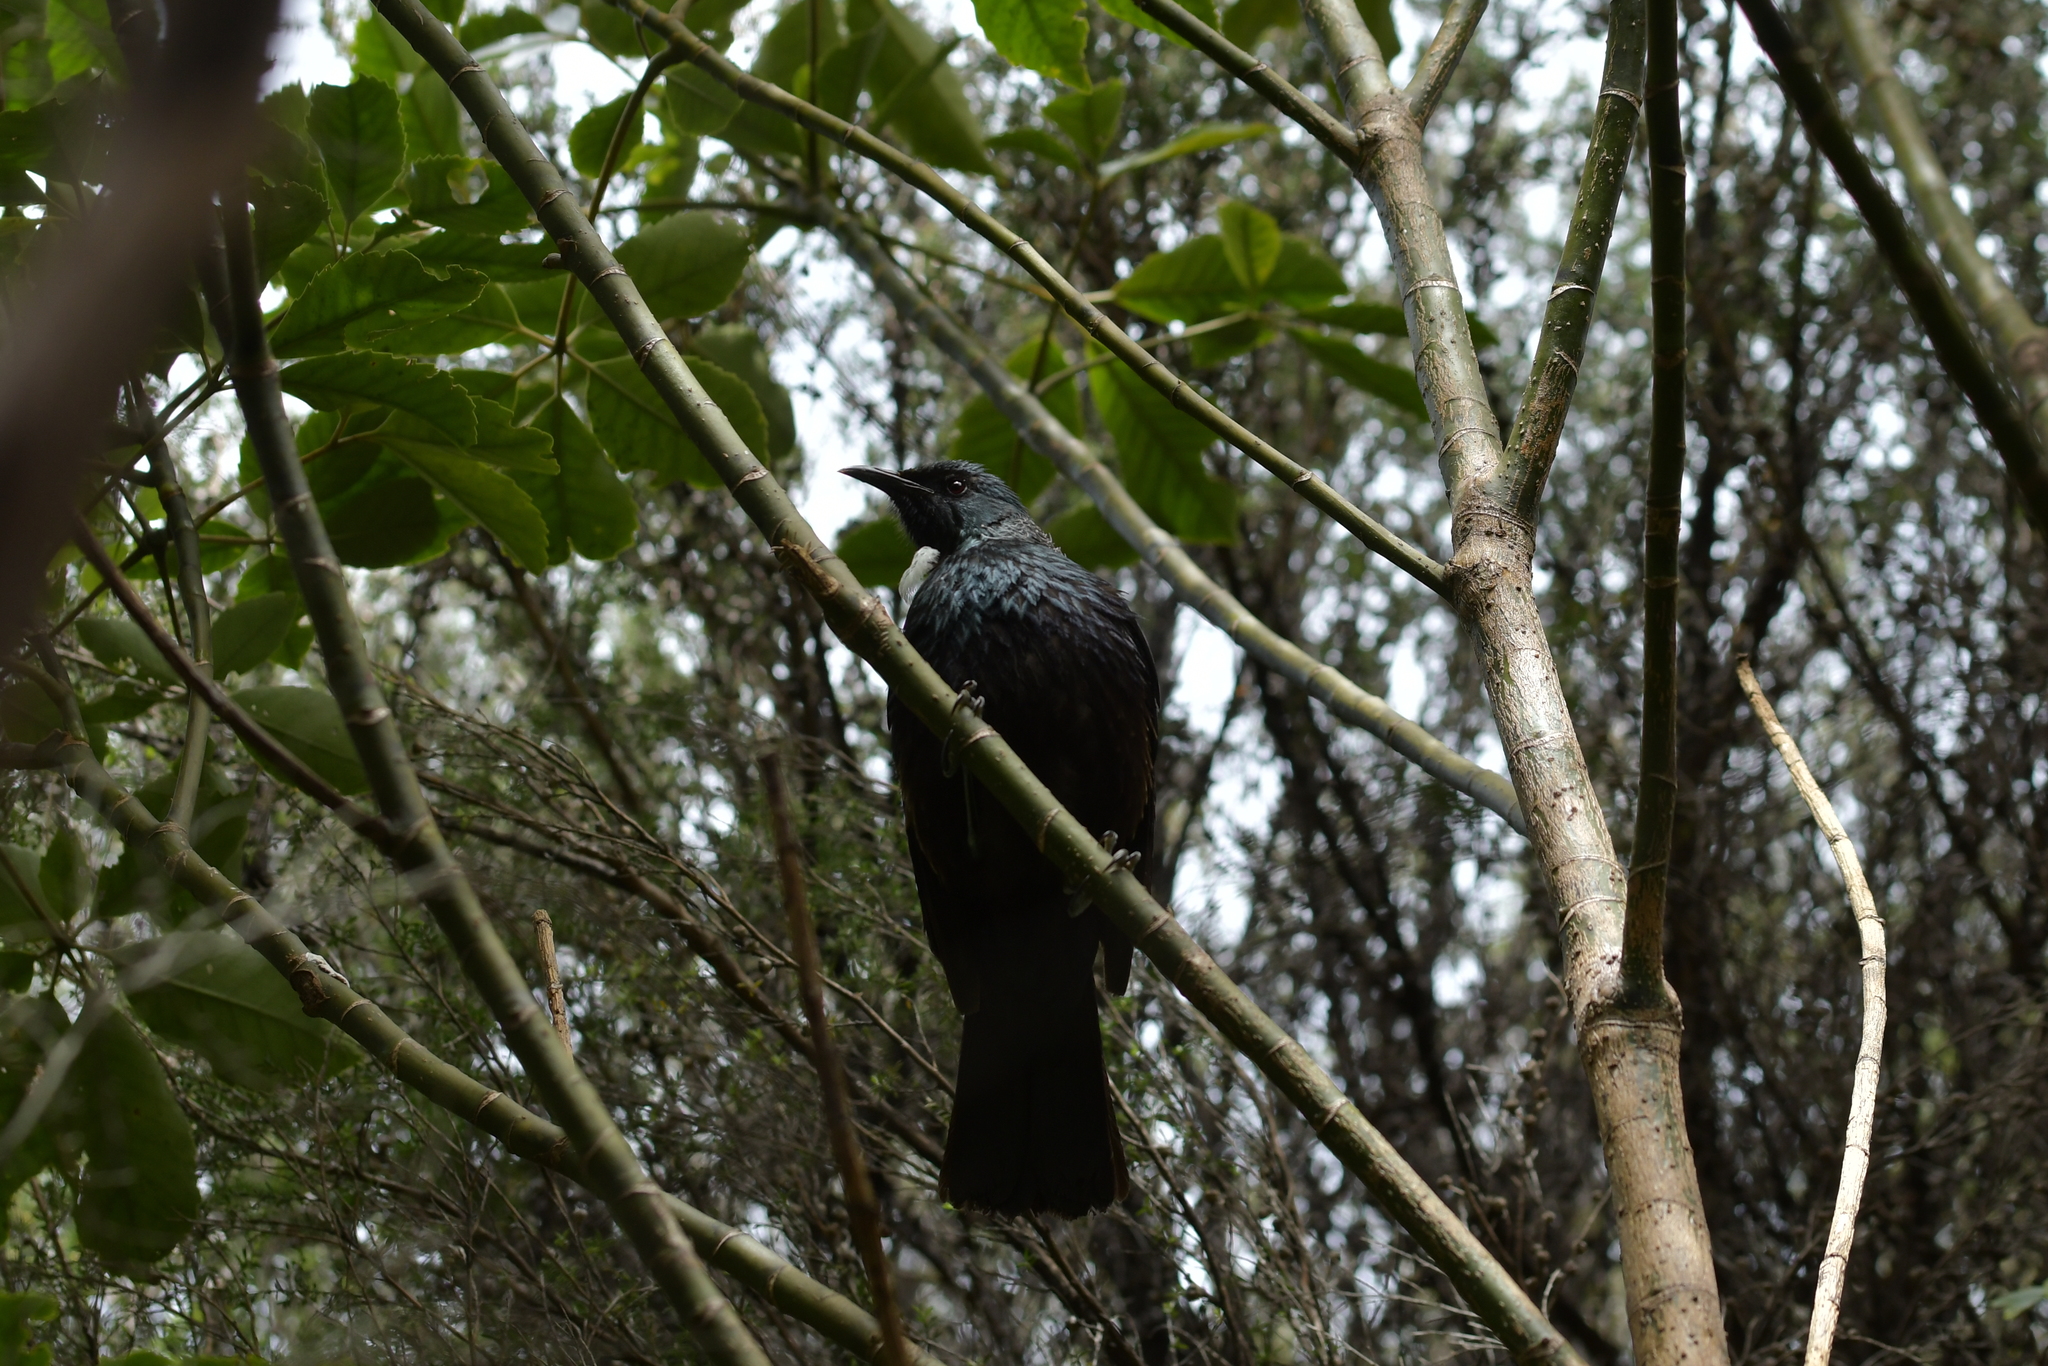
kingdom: Animalia
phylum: Chordata
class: Aves
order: Passeriformes
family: Meliphagidae
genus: Prosthemadera
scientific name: Prosthemadera novaeseelandiae
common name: Tui
